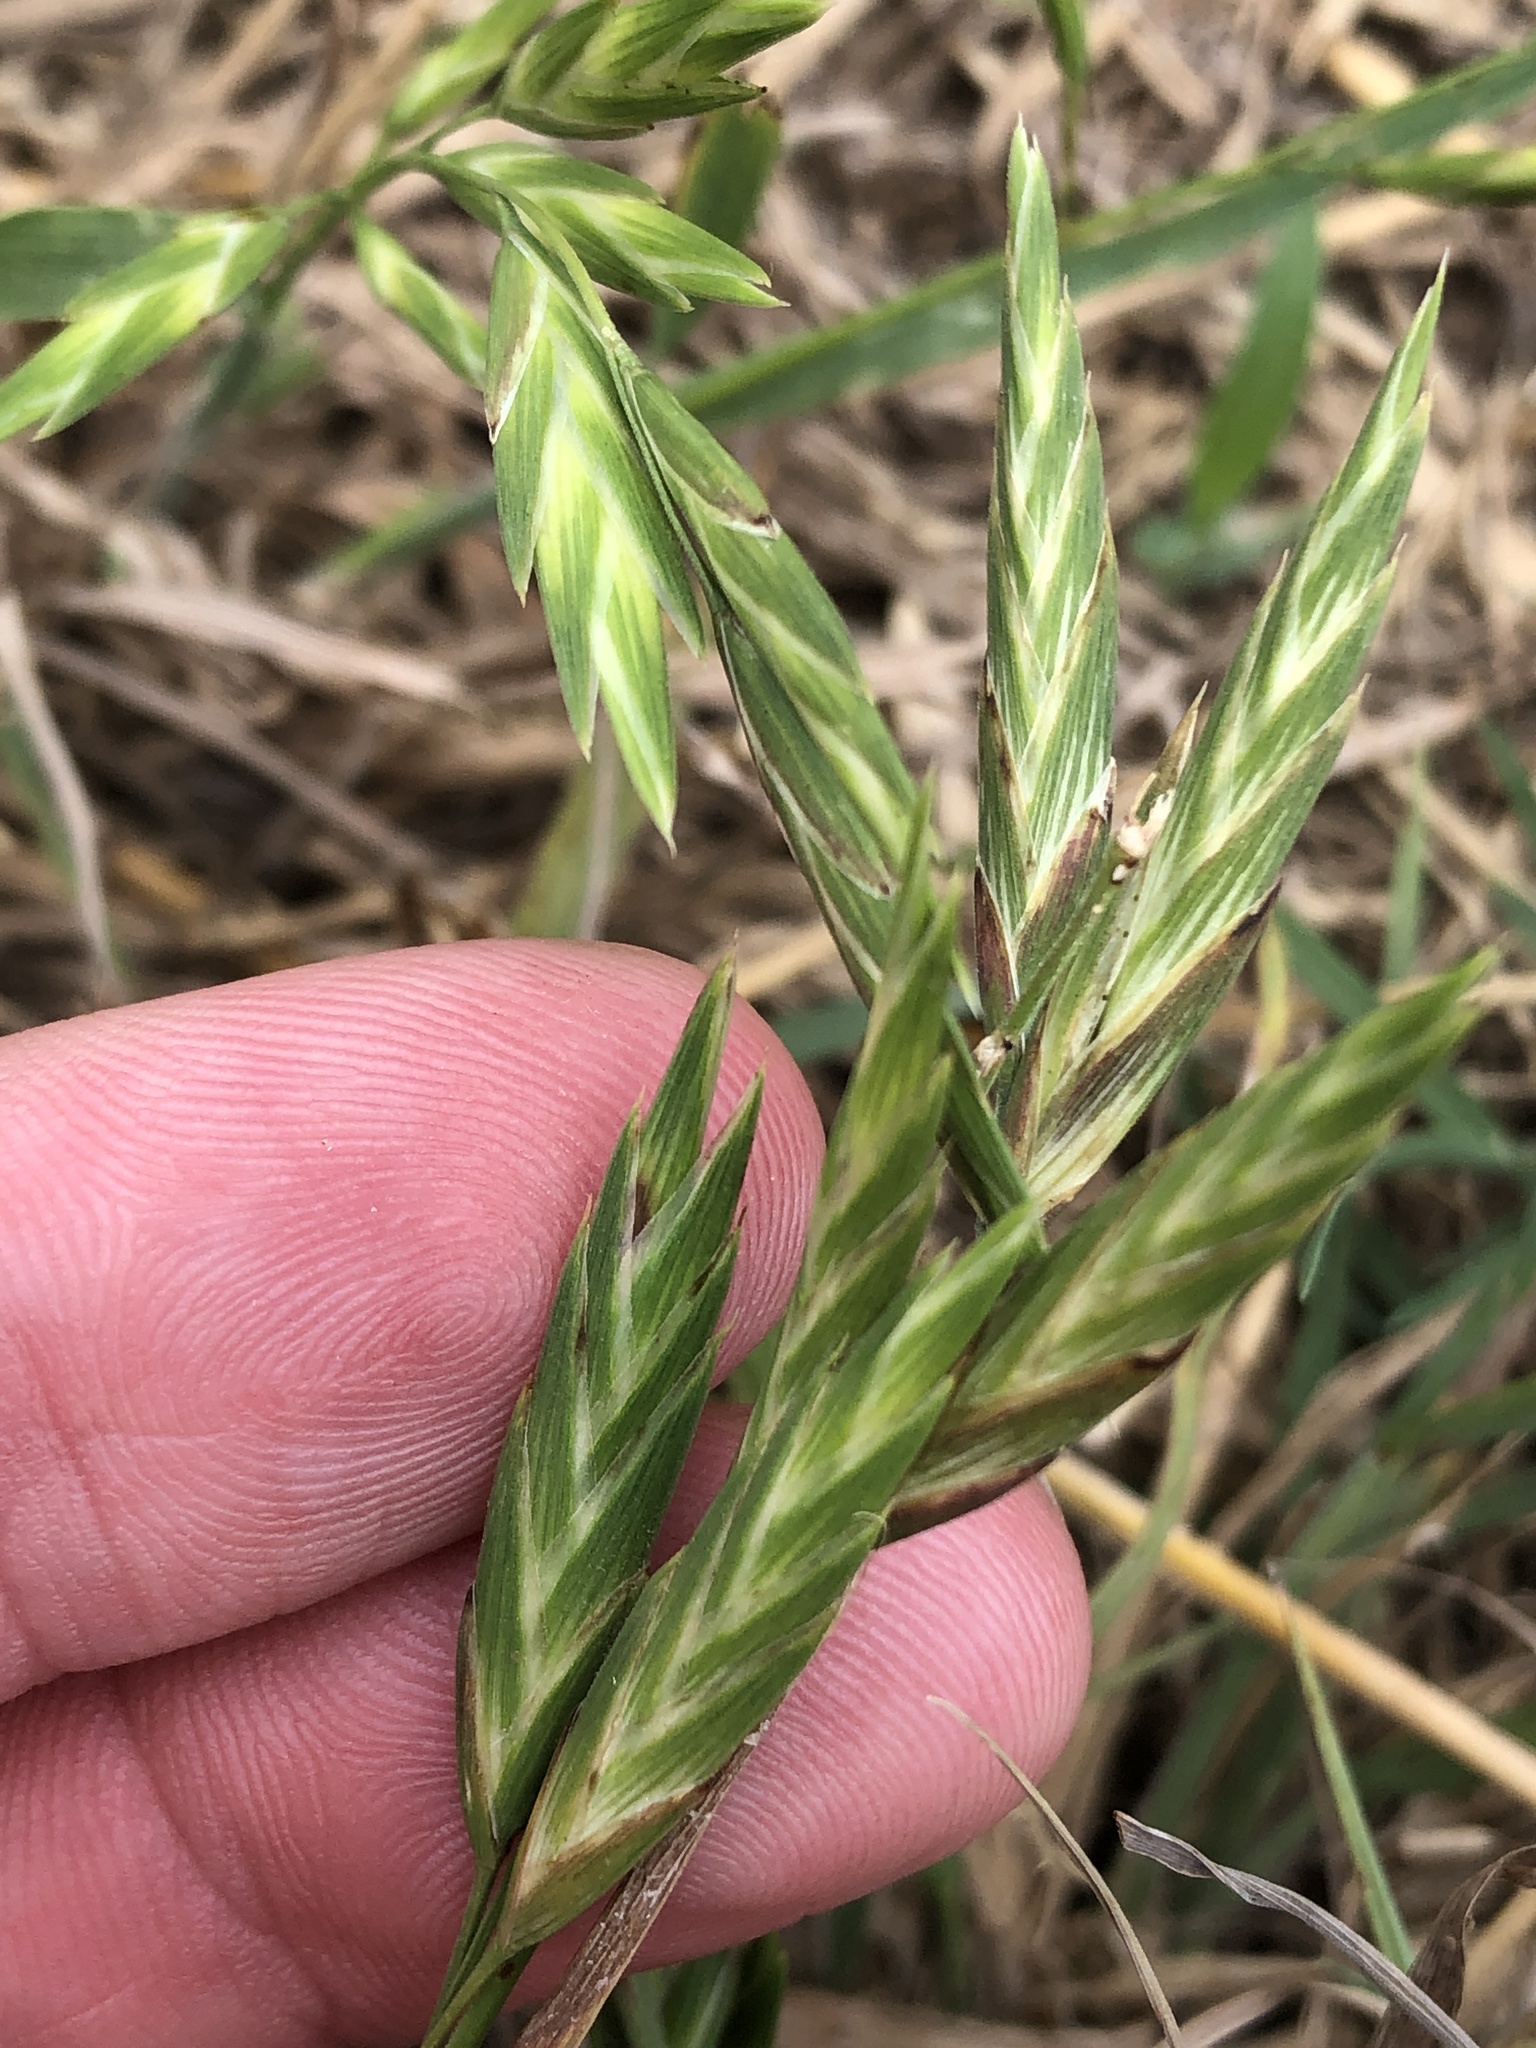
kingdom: Plantae
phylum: Tracheophyta
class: Liliopsida
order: Poales
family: Poaceae
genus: Bromus
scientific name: Bromus catharticus
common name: Rescuegrass
